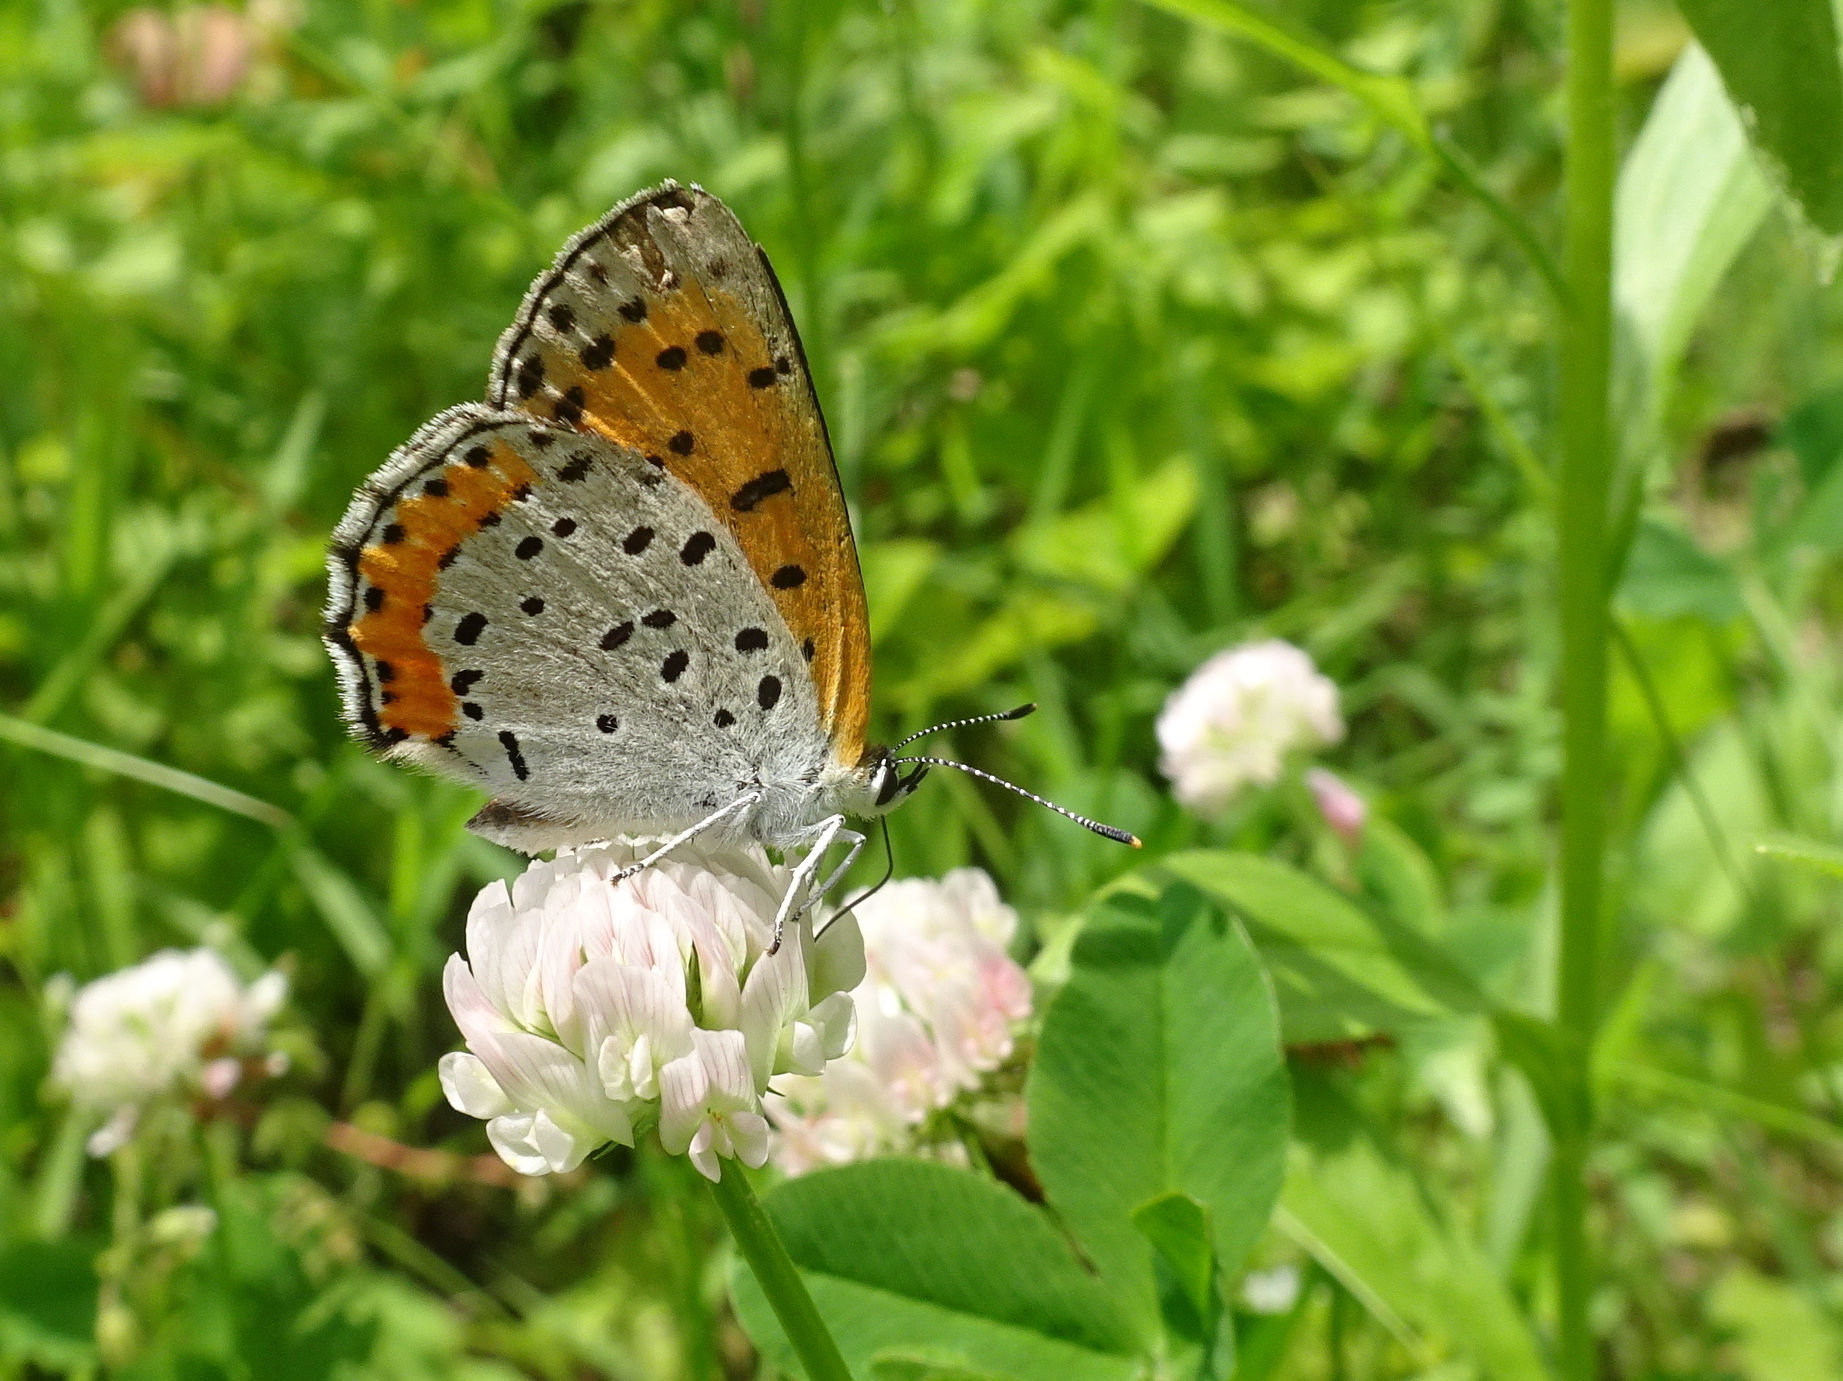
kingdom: Animalia
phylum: Arthropoda
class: Insecta
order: Lepidoptera
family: Lycaenidae
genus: Tharsalea
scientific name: Tharsalea hyllus
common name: Bronze copper
